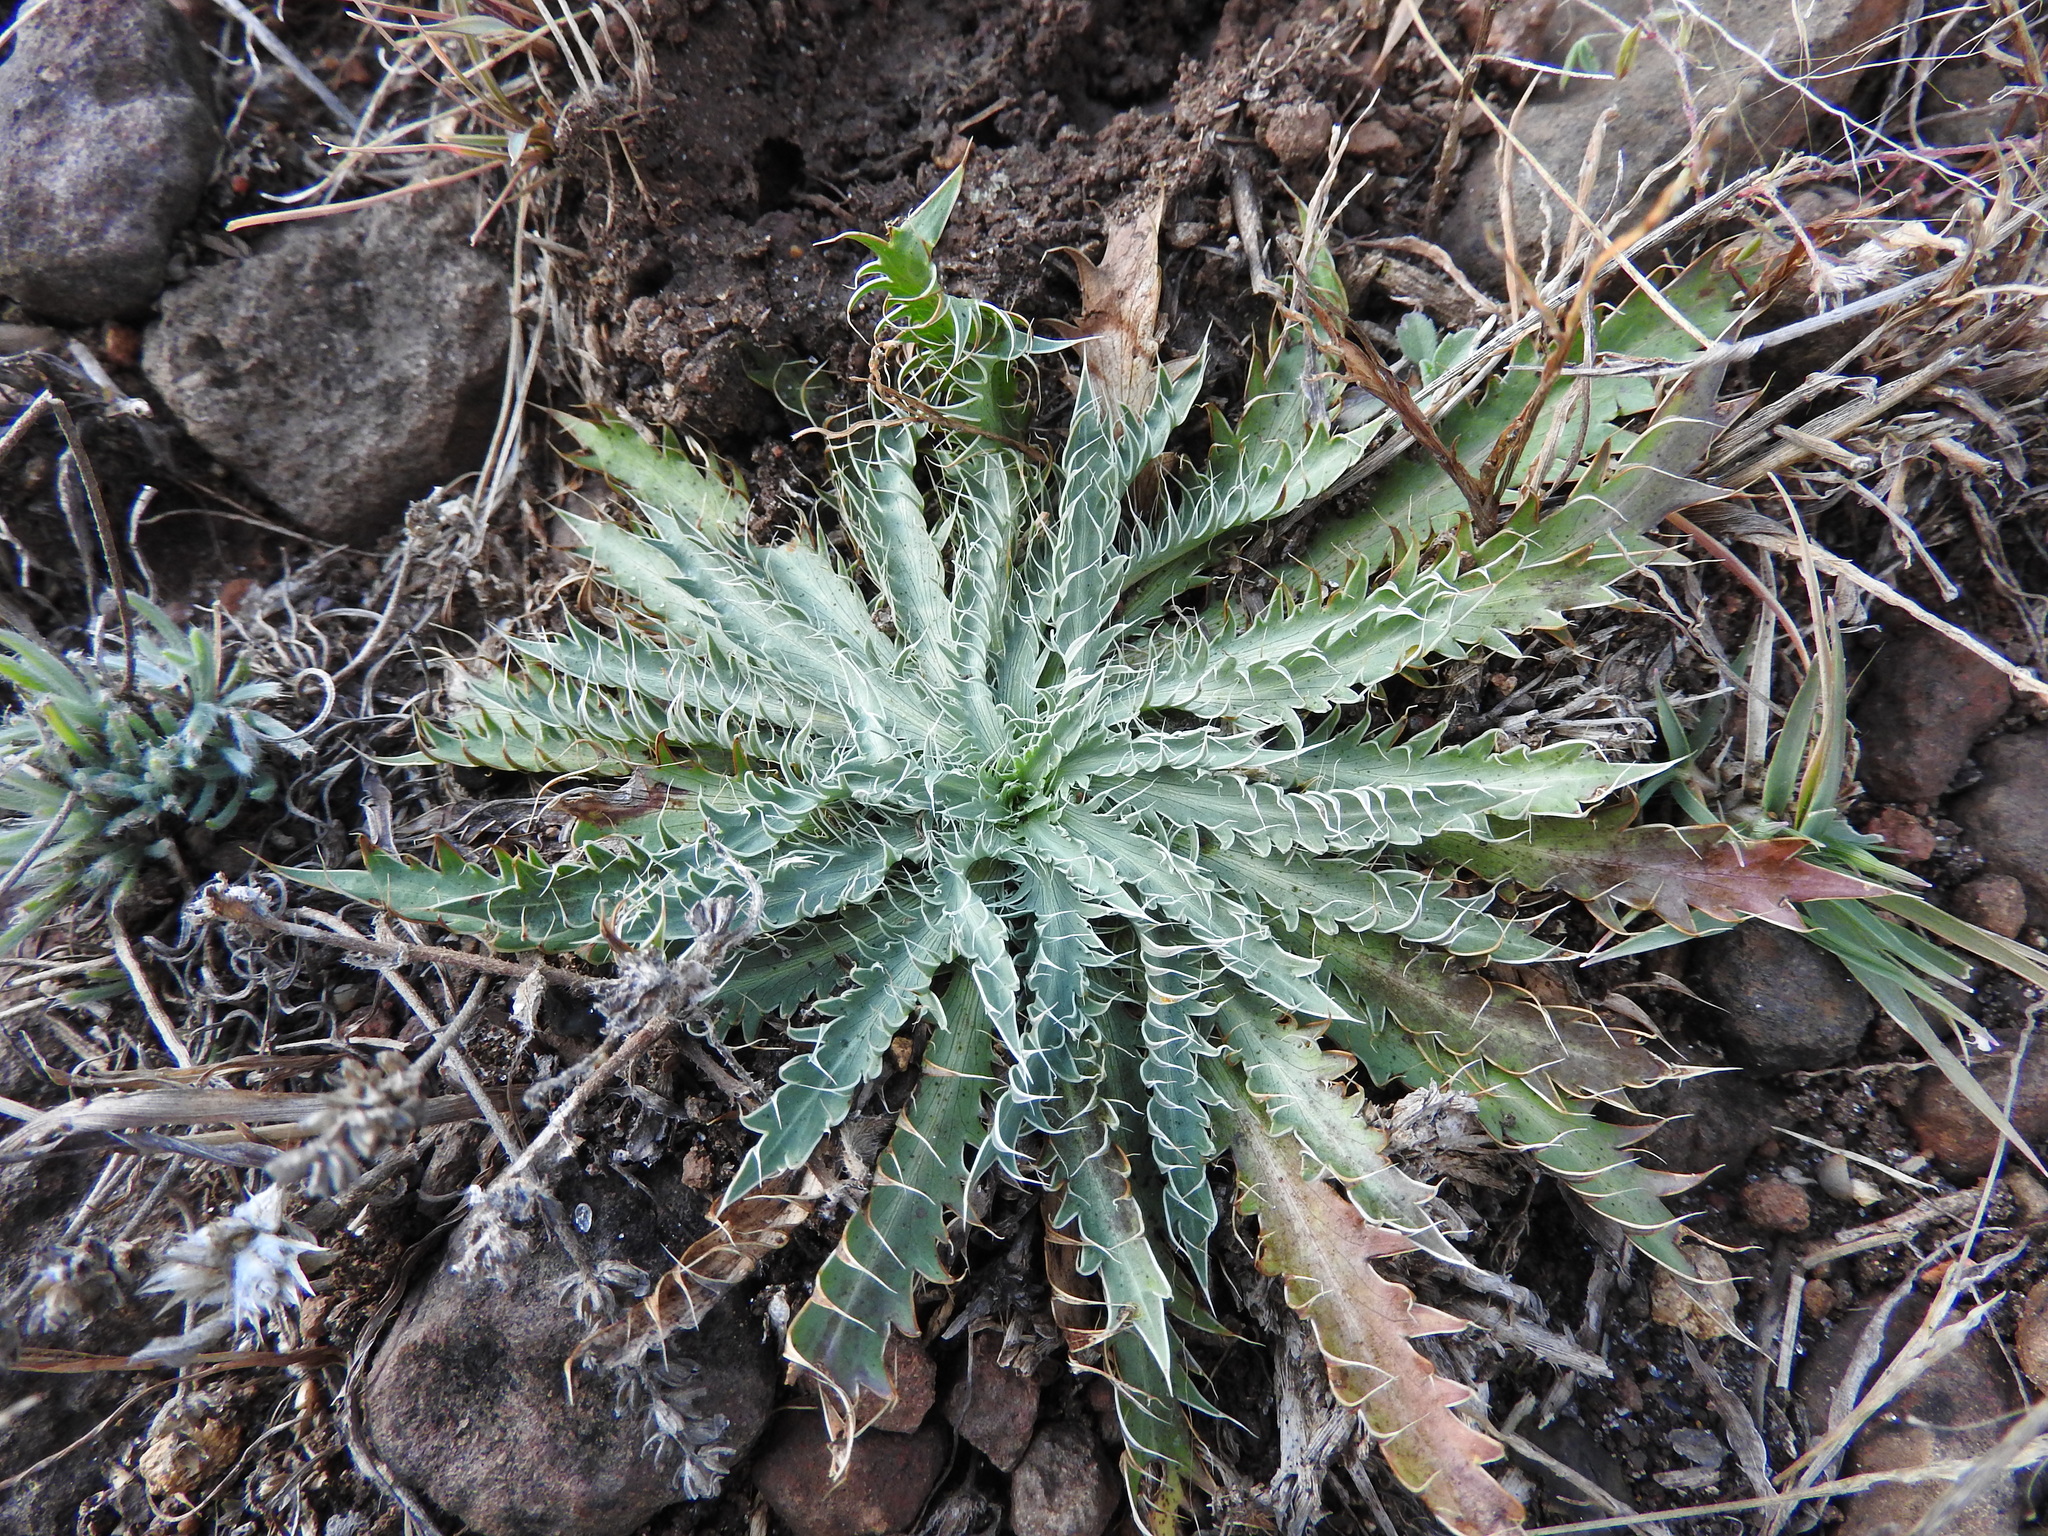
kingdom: Plantae
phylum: Tracheophyta
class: Magnoliopsida
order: Apiales
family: Apiaceae
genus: Eryngium
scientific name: Eryngium serratum
